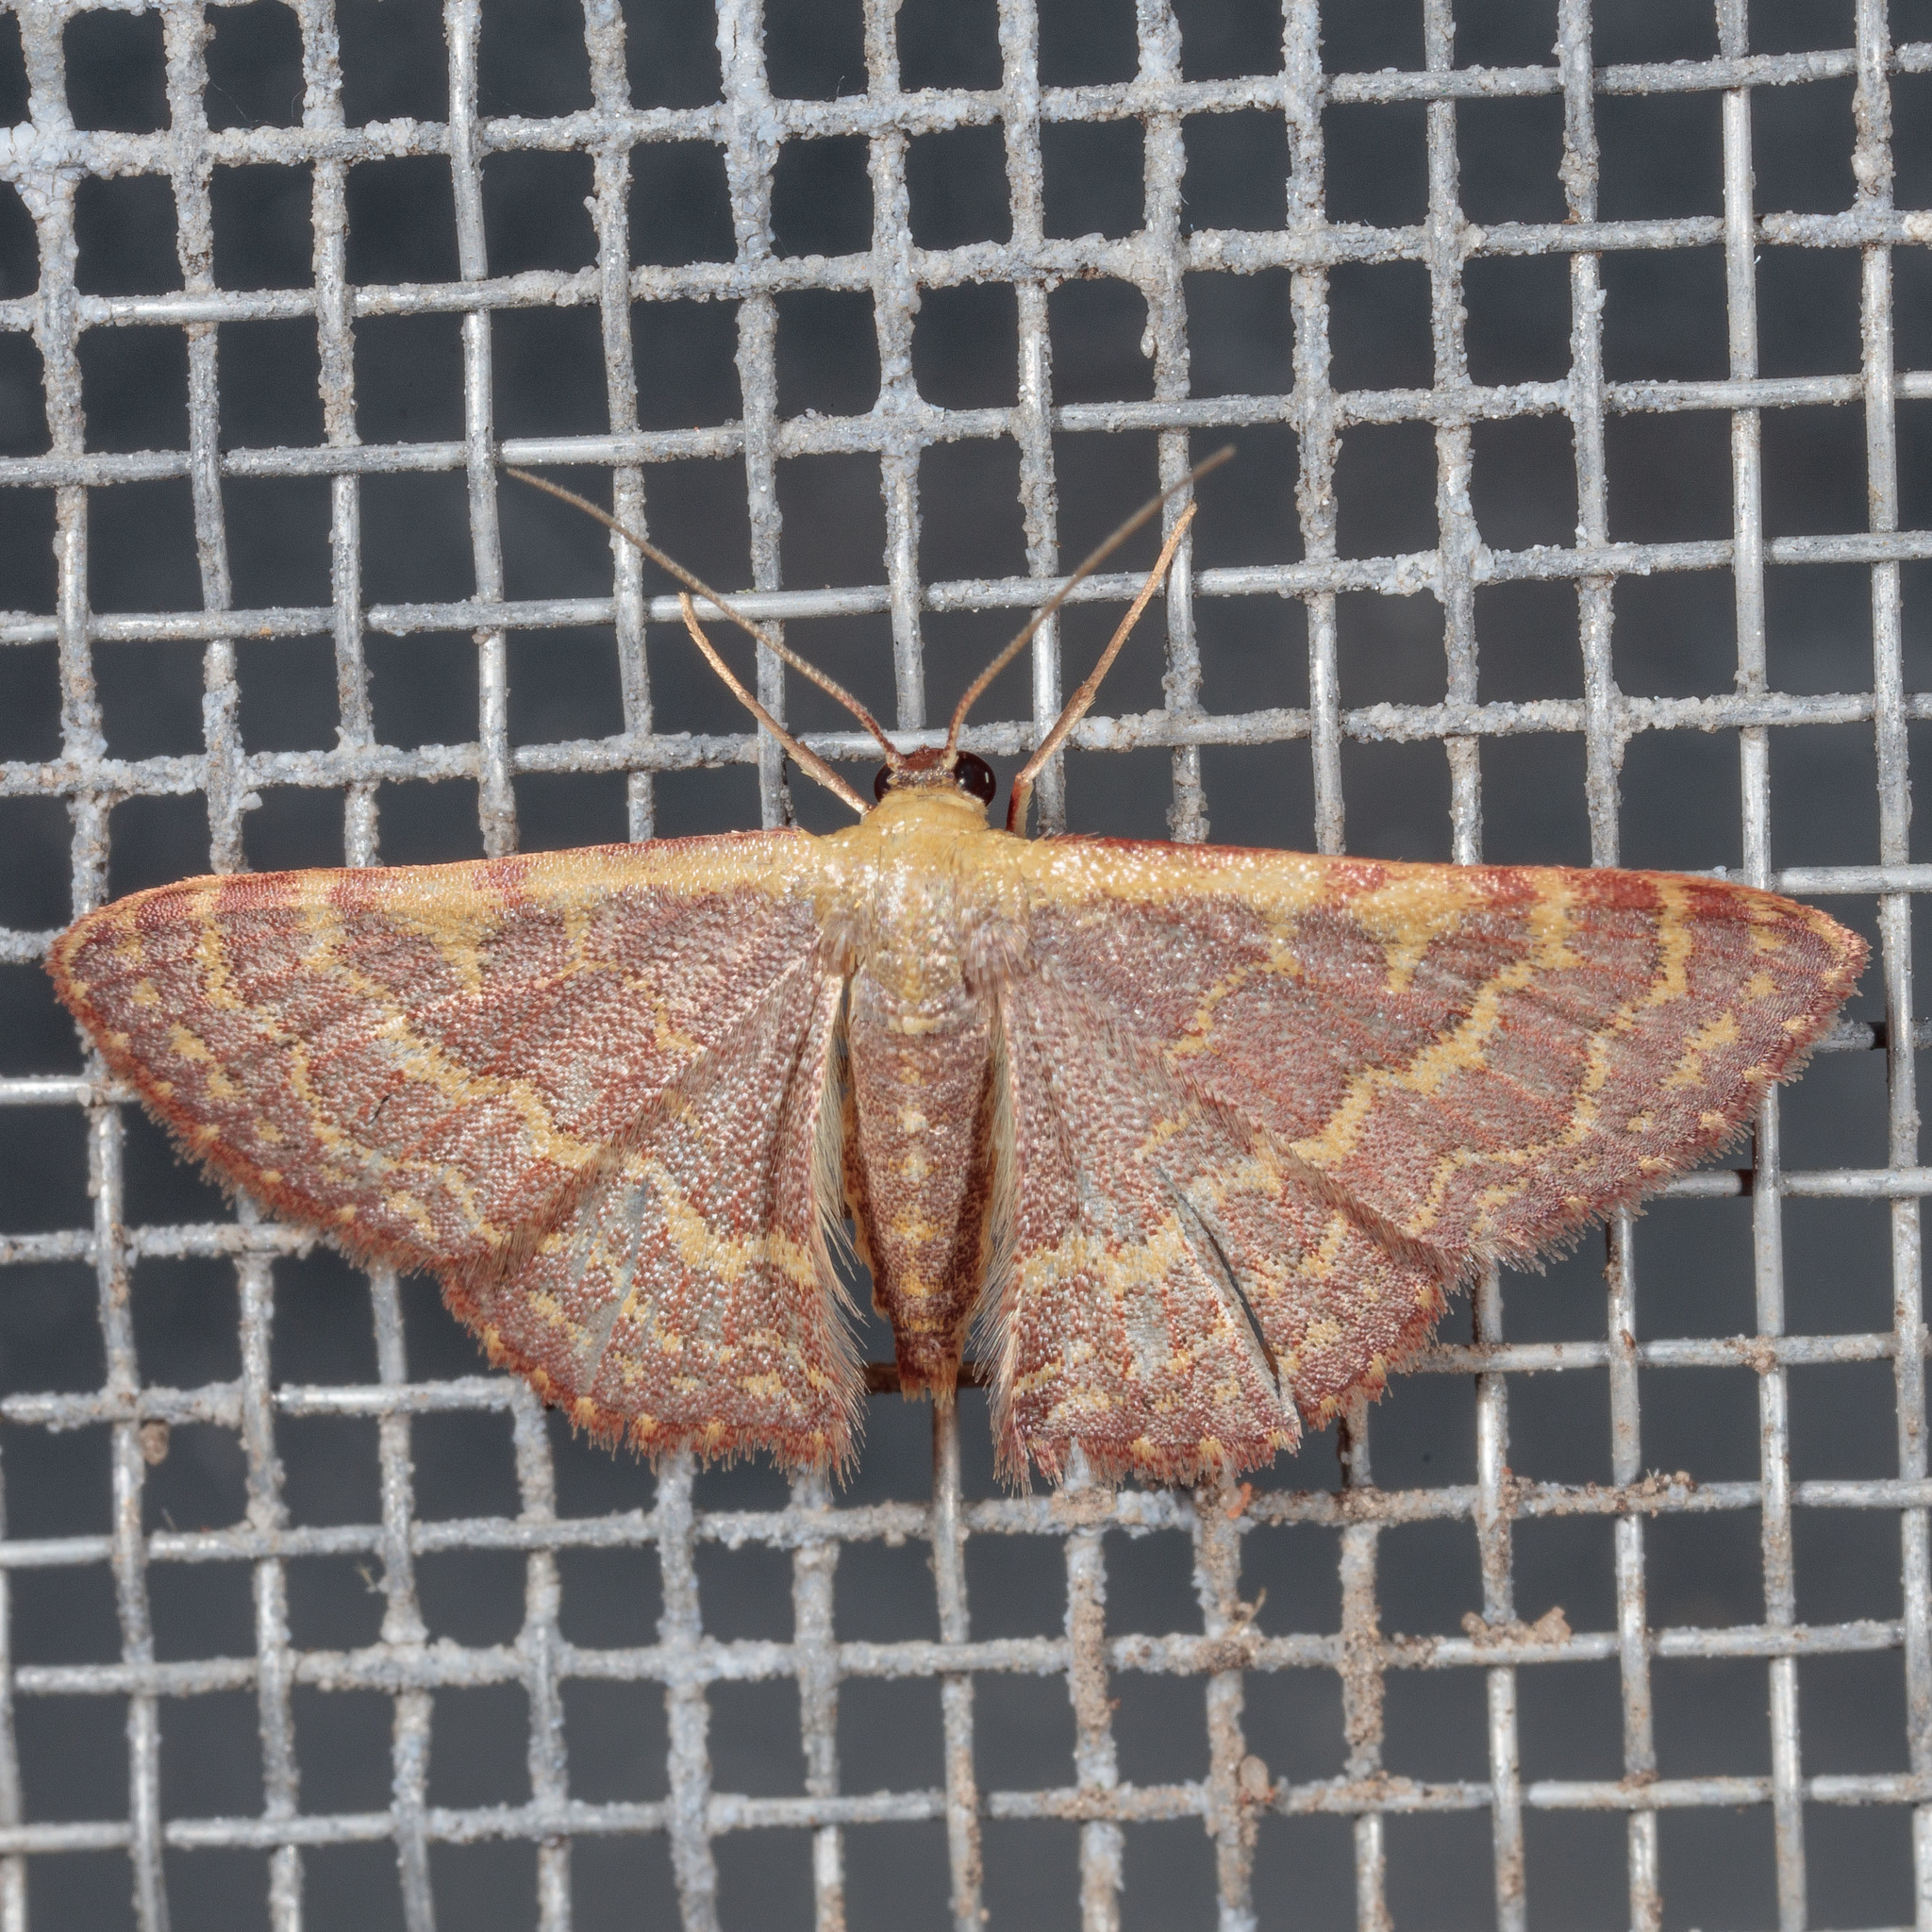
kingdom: Animalia
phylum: Arthropoda
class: Insecta
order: Lepidoptera
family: Geometridae
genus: Leptostales
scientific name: Leptostales pannaria
